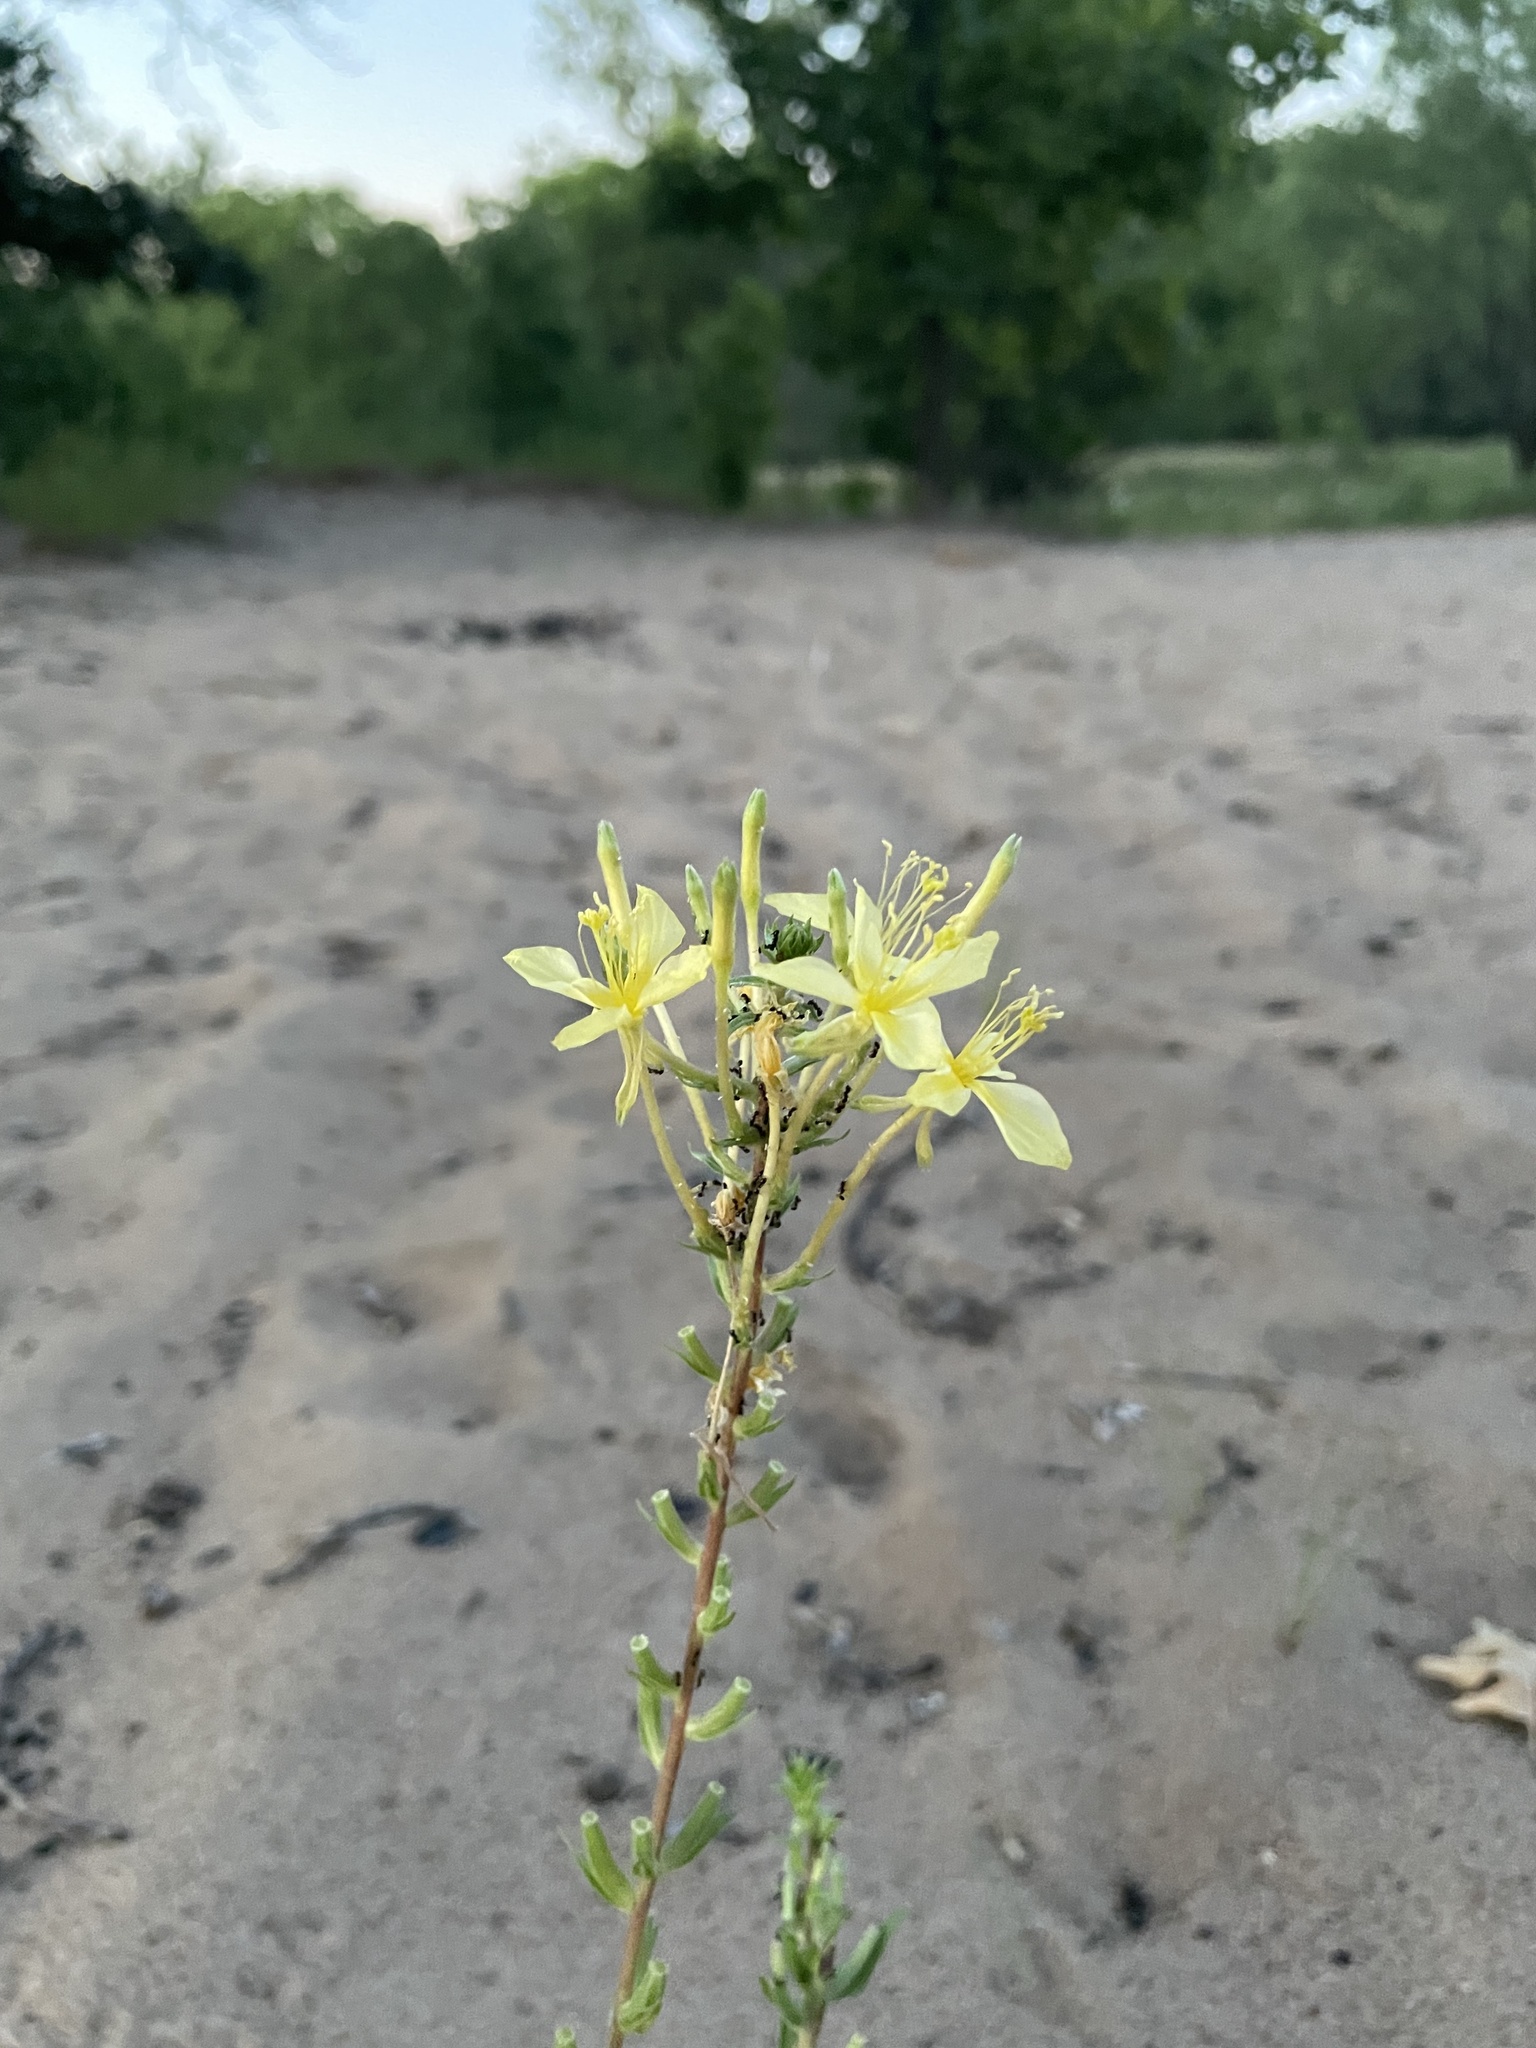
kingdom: Plantae
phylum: Tracheophyta
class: Magnoliopsida
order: Myrtales
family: Onagraceae
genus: Oenothera
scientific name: Oenothera clelandii
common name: Cleland's evening-primrose
